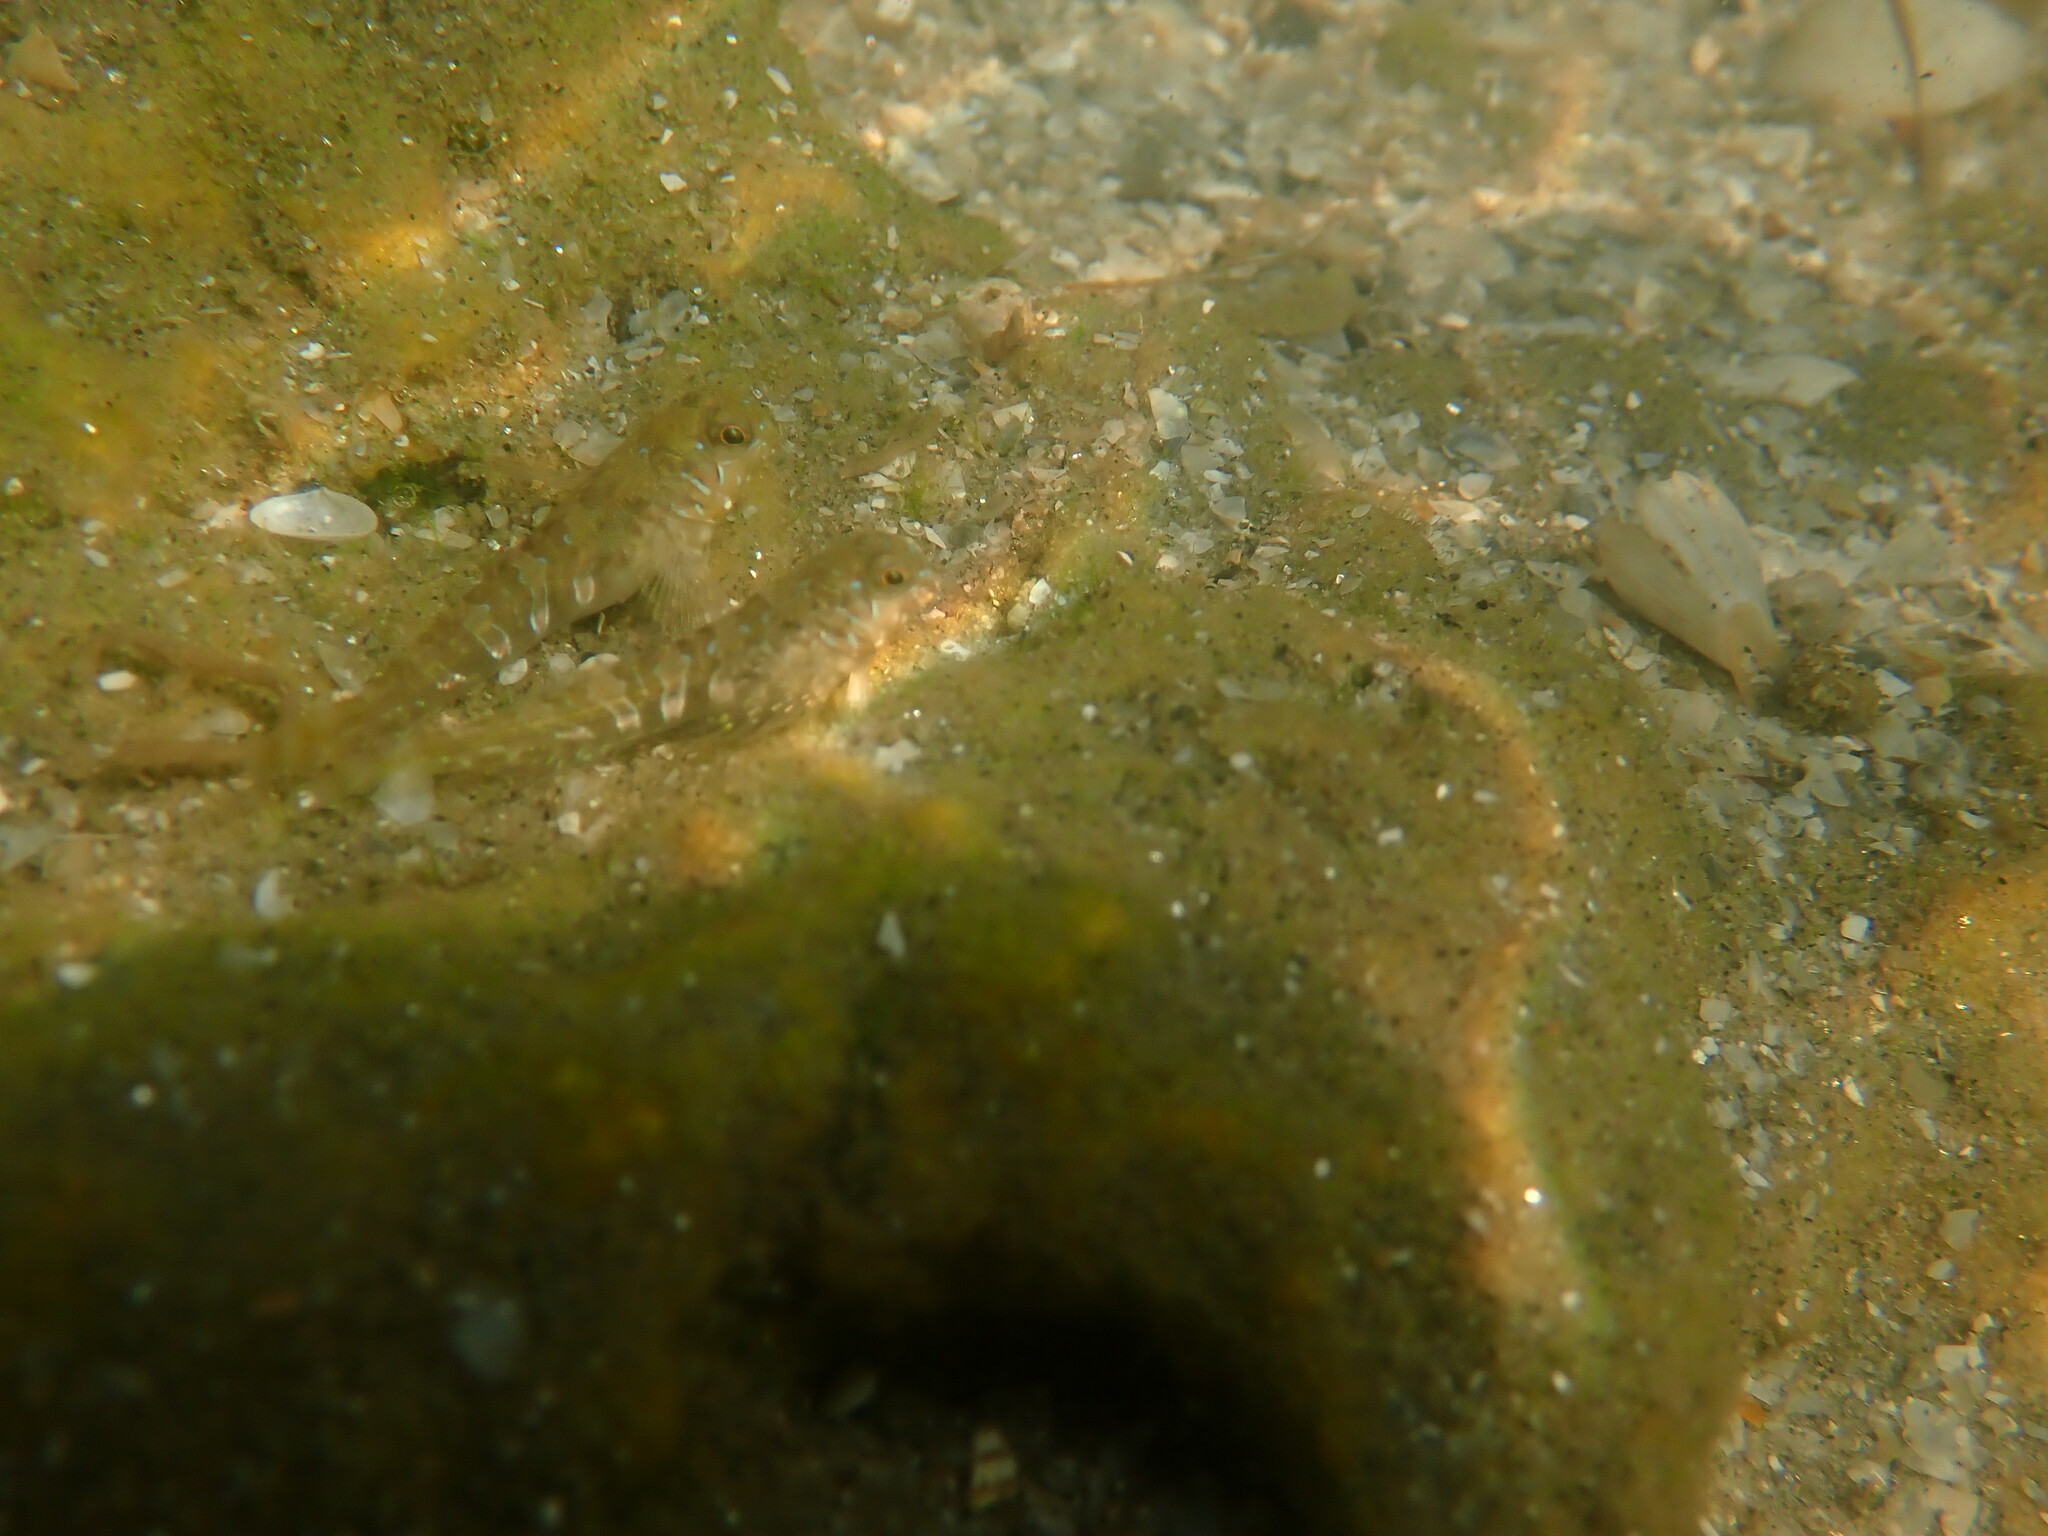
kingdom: Animalia
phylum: Chordata
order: Perciformes
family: Blenniidae
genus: Aidablennius
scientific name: Aidablennius sphynx
